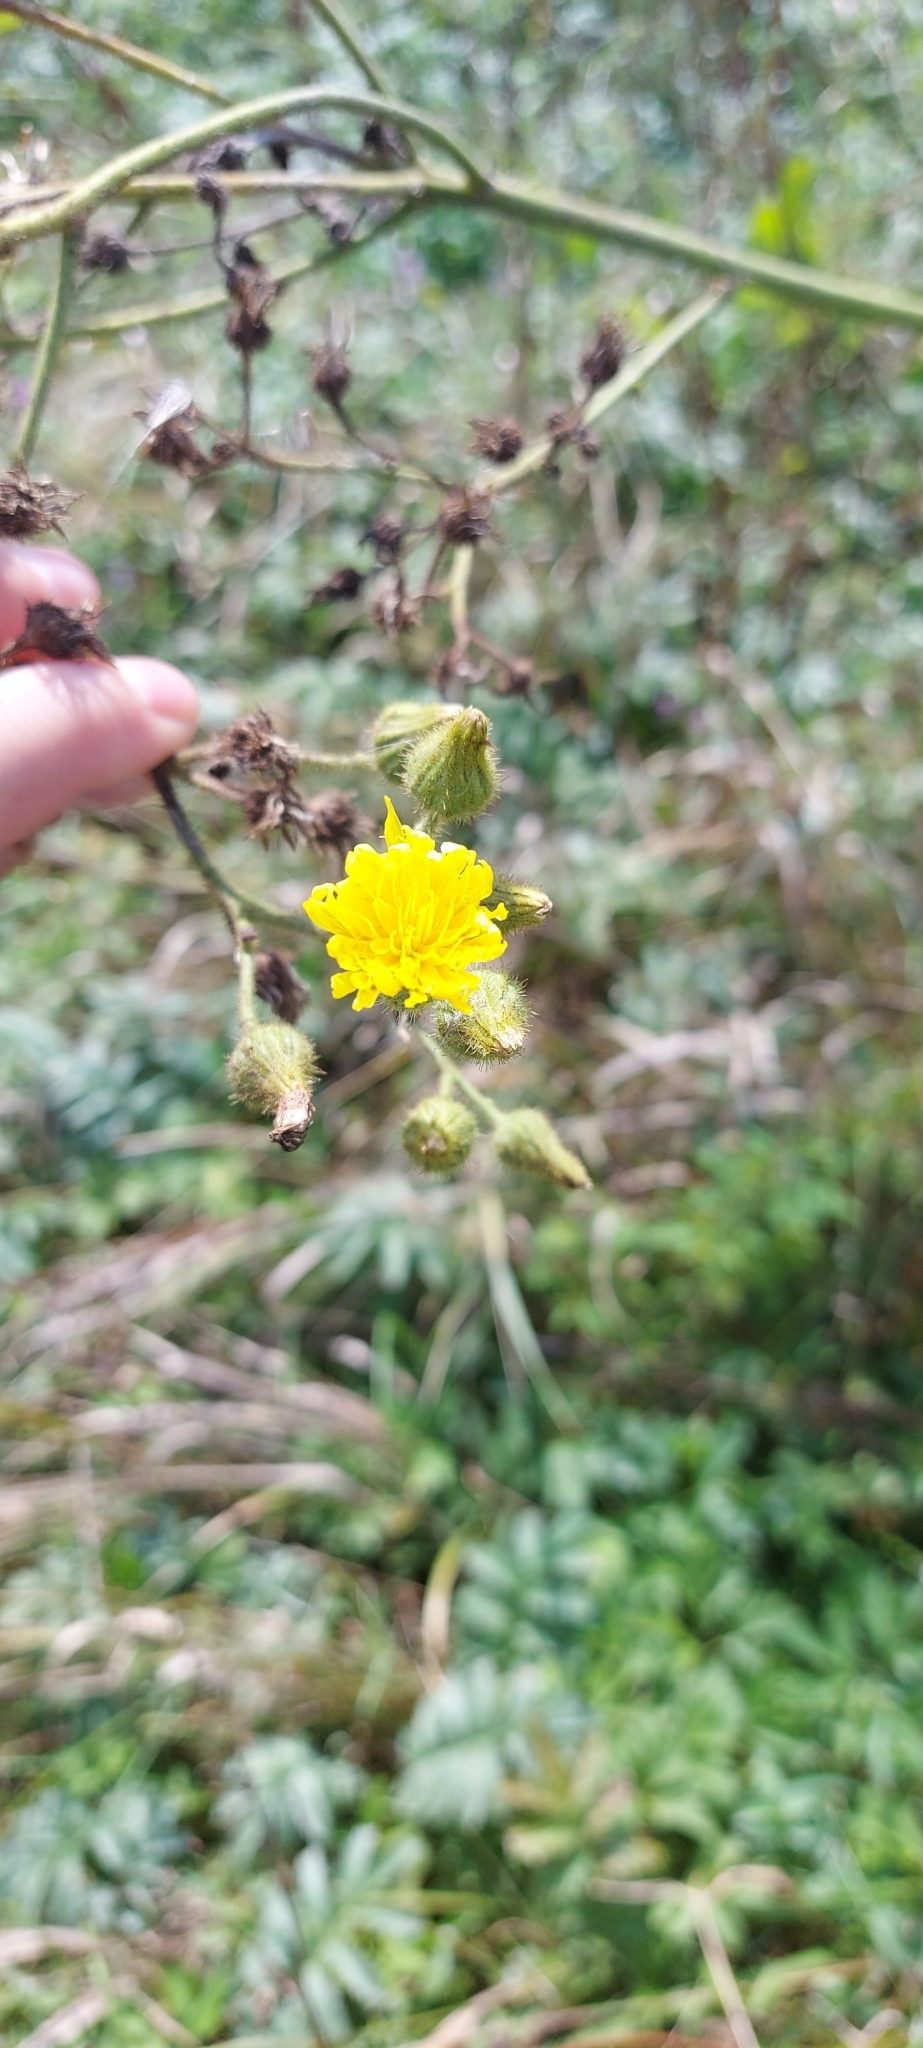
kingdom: Plantae
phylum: Tracheophyta
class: Magnoliopsida
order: Asterales
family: Asteraceae
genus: Sonchus
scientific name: Sonchus palustris
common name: Marsh sow-thistle
